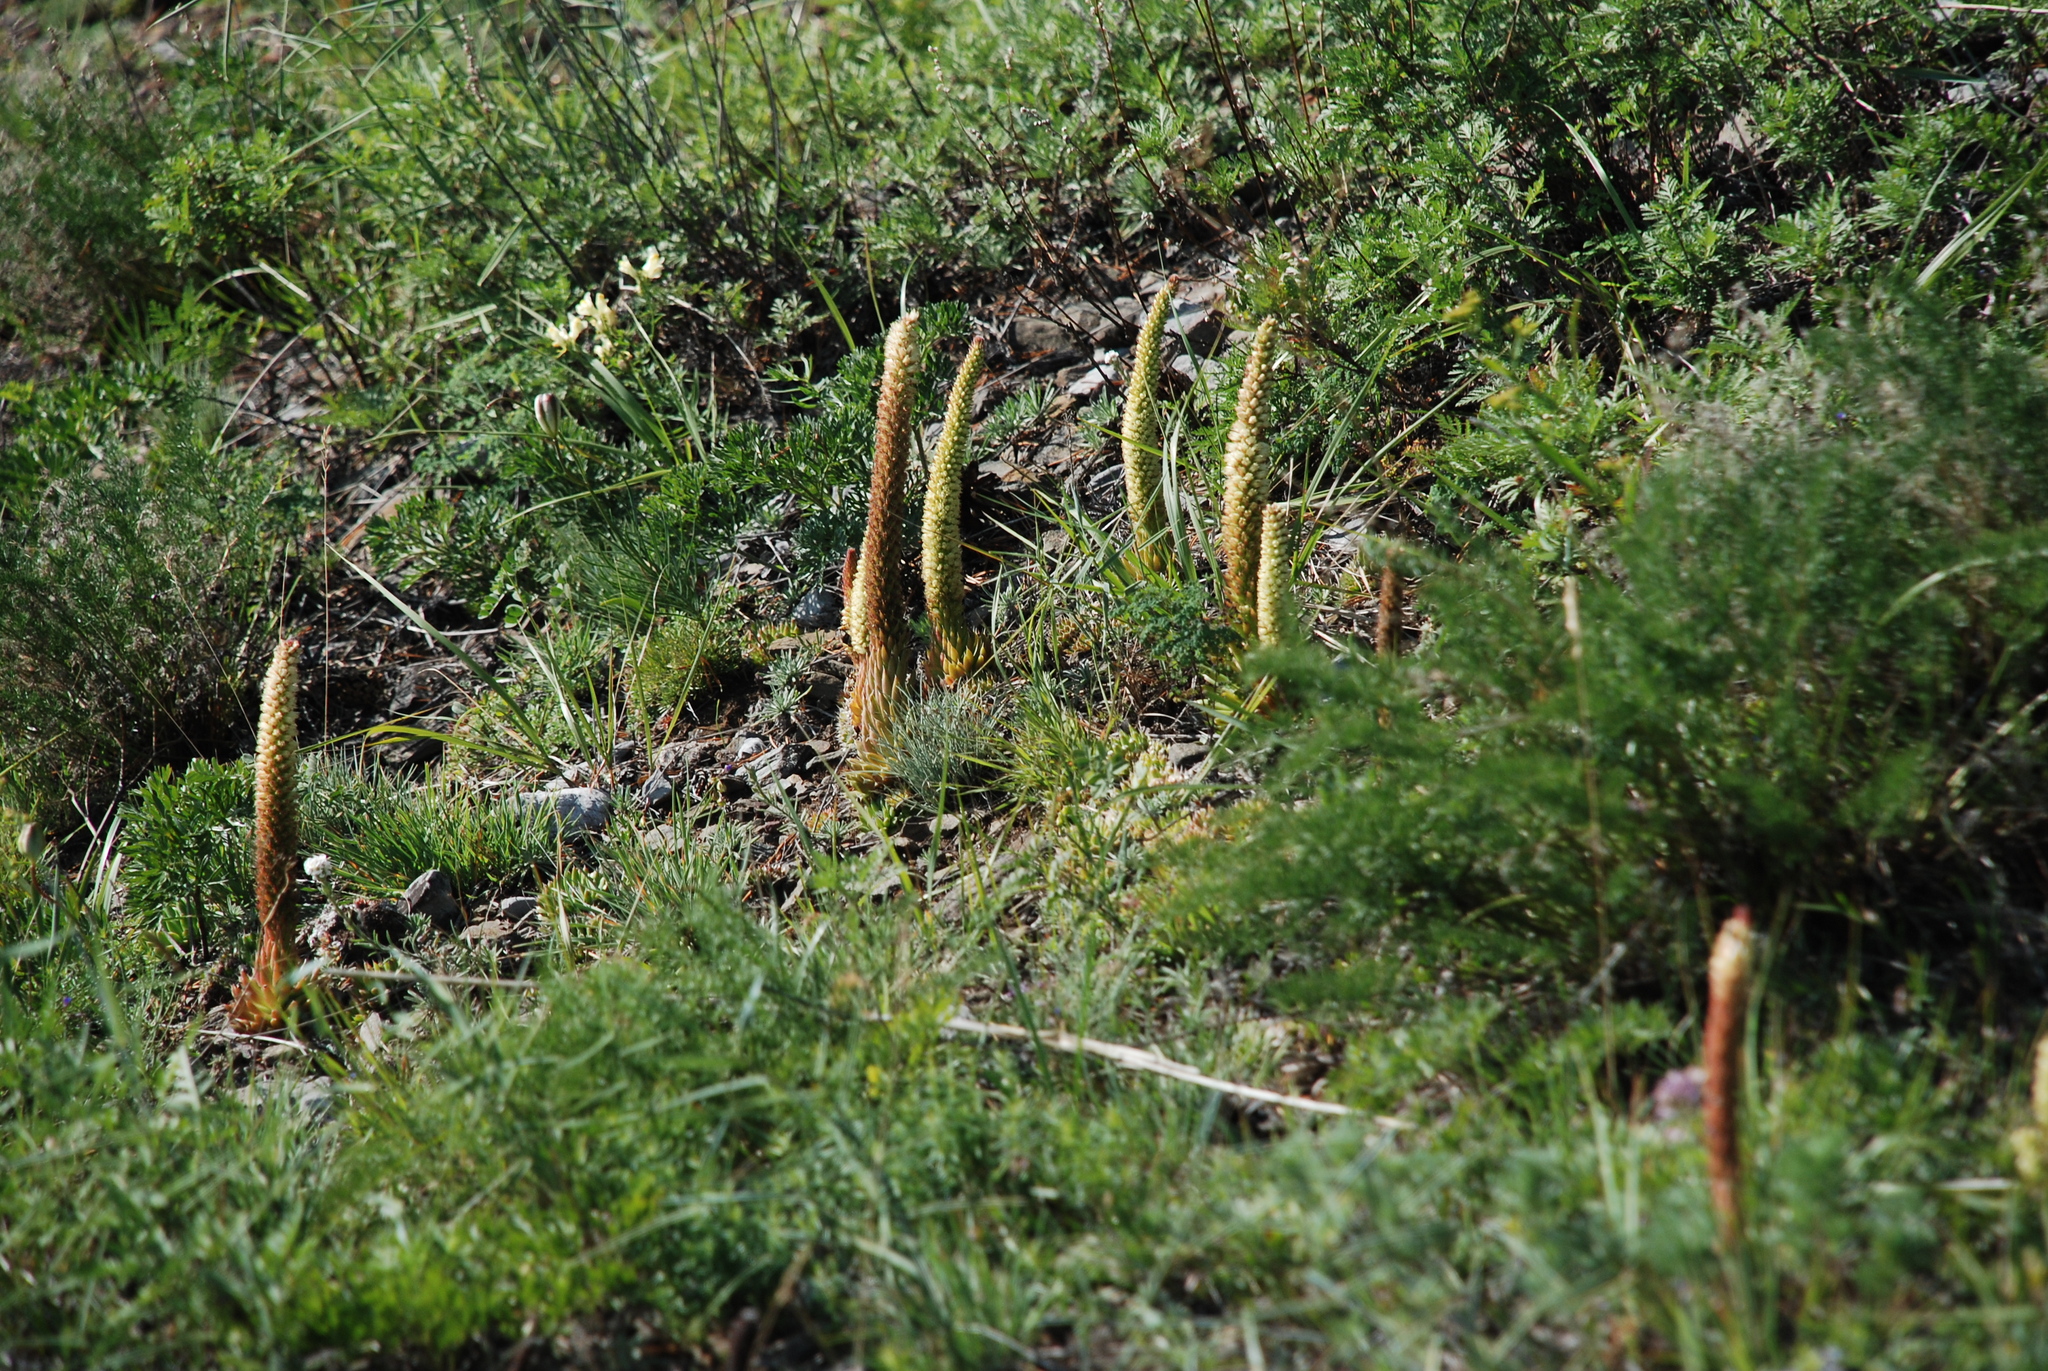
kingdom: Plantae
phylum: Tracheophyta
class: Magnoliopsida
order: Saxifragales
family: Crassulaceae
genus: Orostachys
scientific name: Orostachys spinosa
